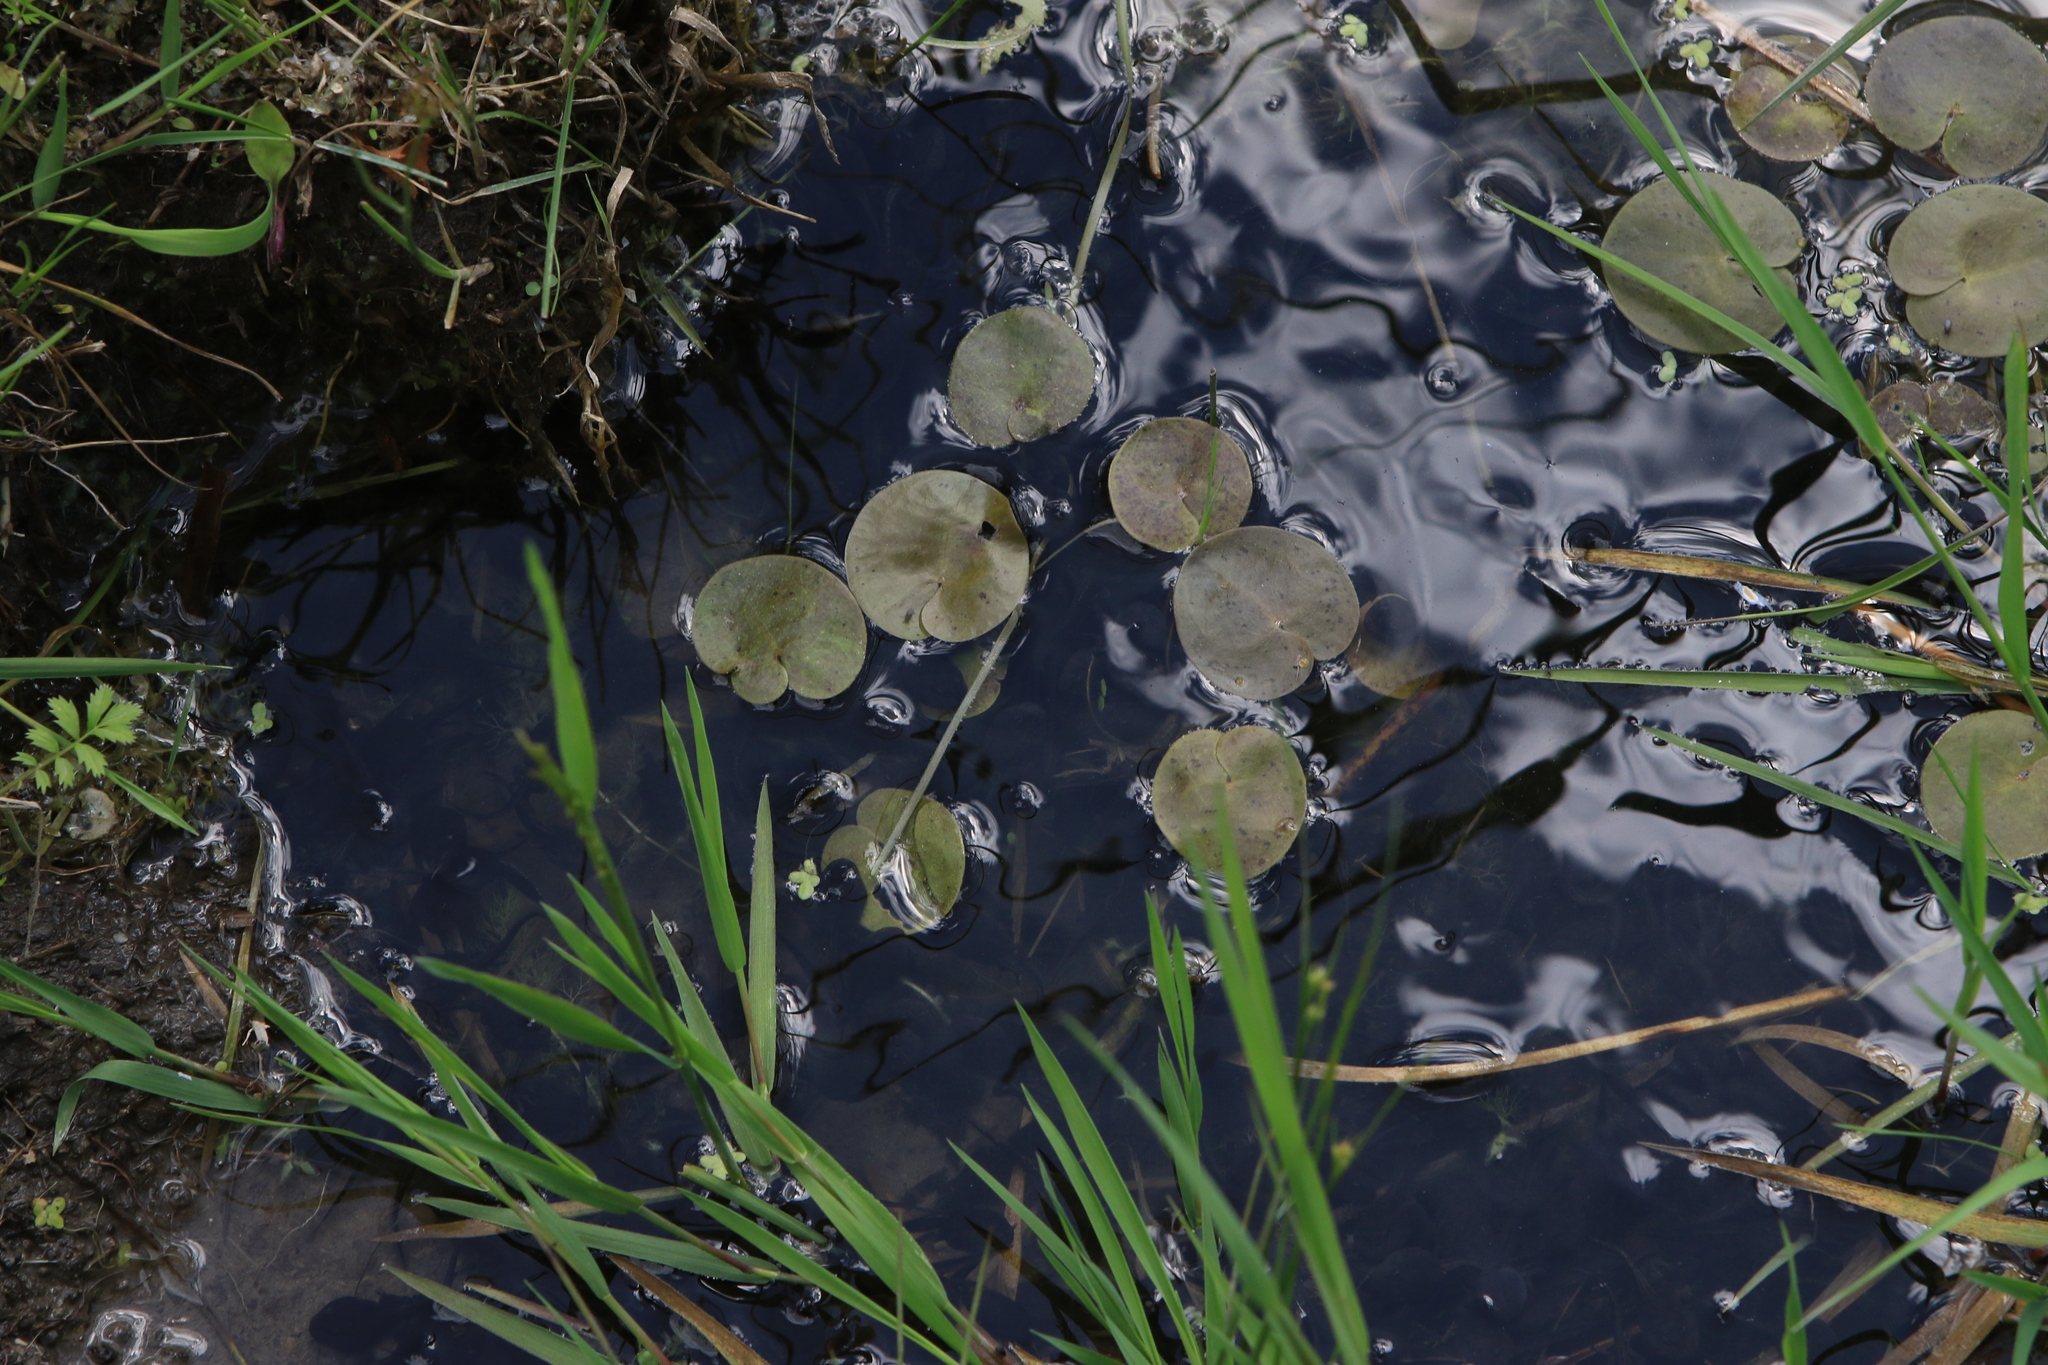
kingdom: Plantae
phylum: Tracheophyta
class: Liliopsida
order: Alismatales
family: Hydrocharitaceae
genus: Hydrocharis
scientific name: Hydrocharis morsus-ranae
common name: Frogbit
